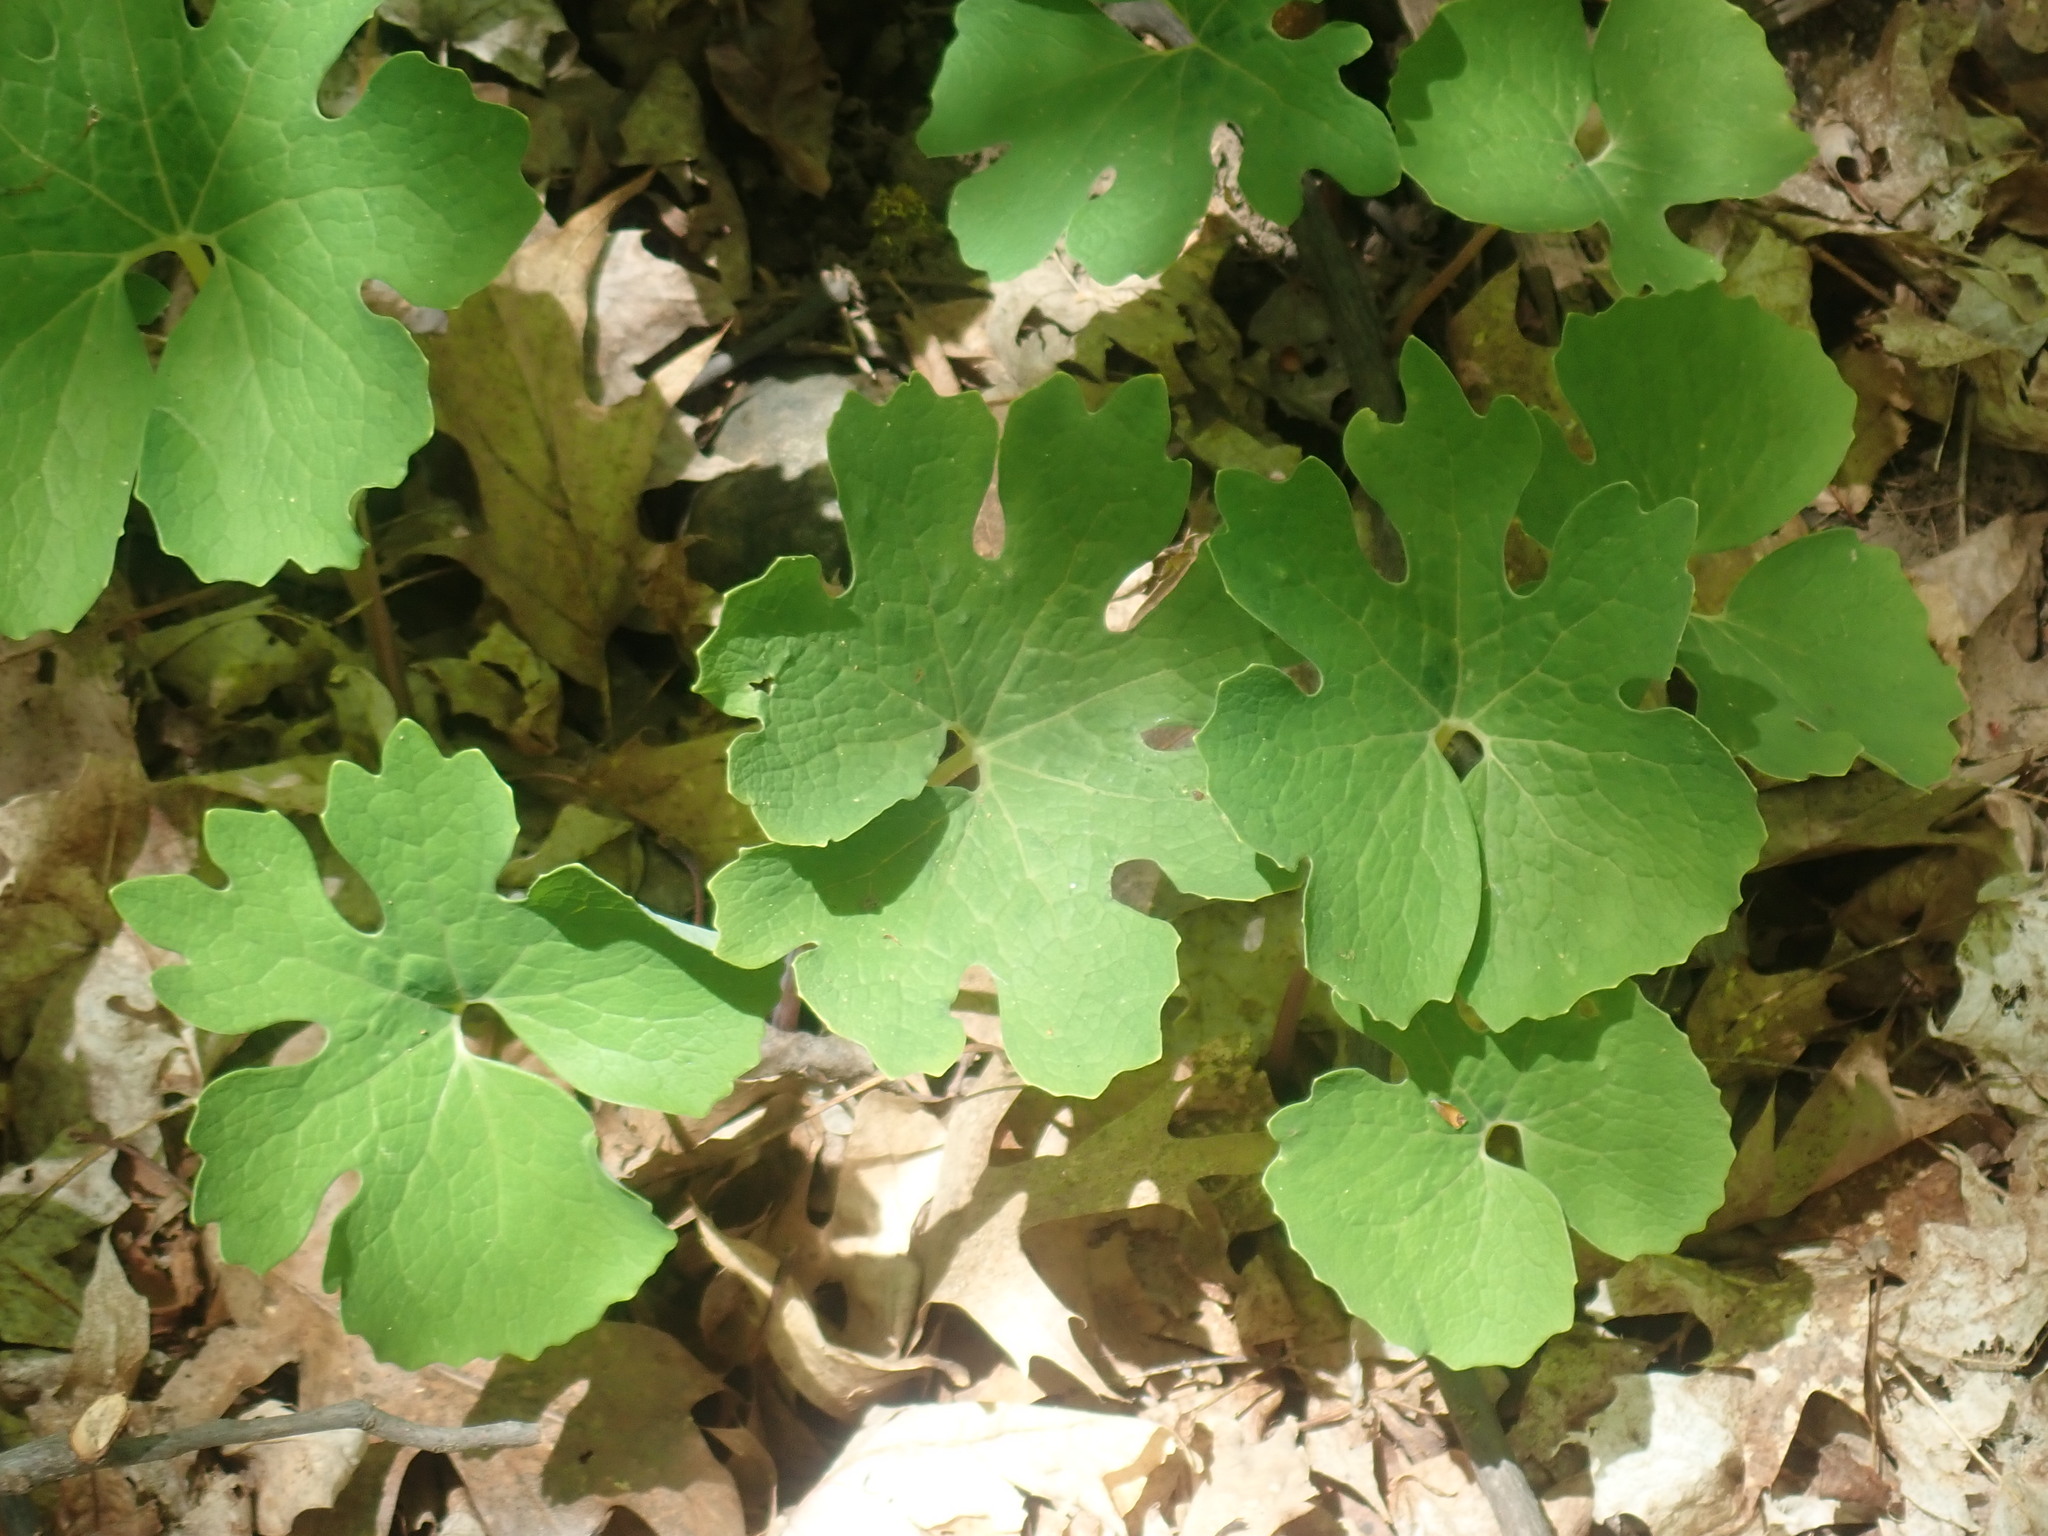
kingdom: Plantae
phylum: Tracheophyta
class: Magnoliopsida
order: Ranunculales
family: Papaveraceae
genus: Sanguinaria
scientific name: Sanguinaria canadensis
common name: Bloodroot
